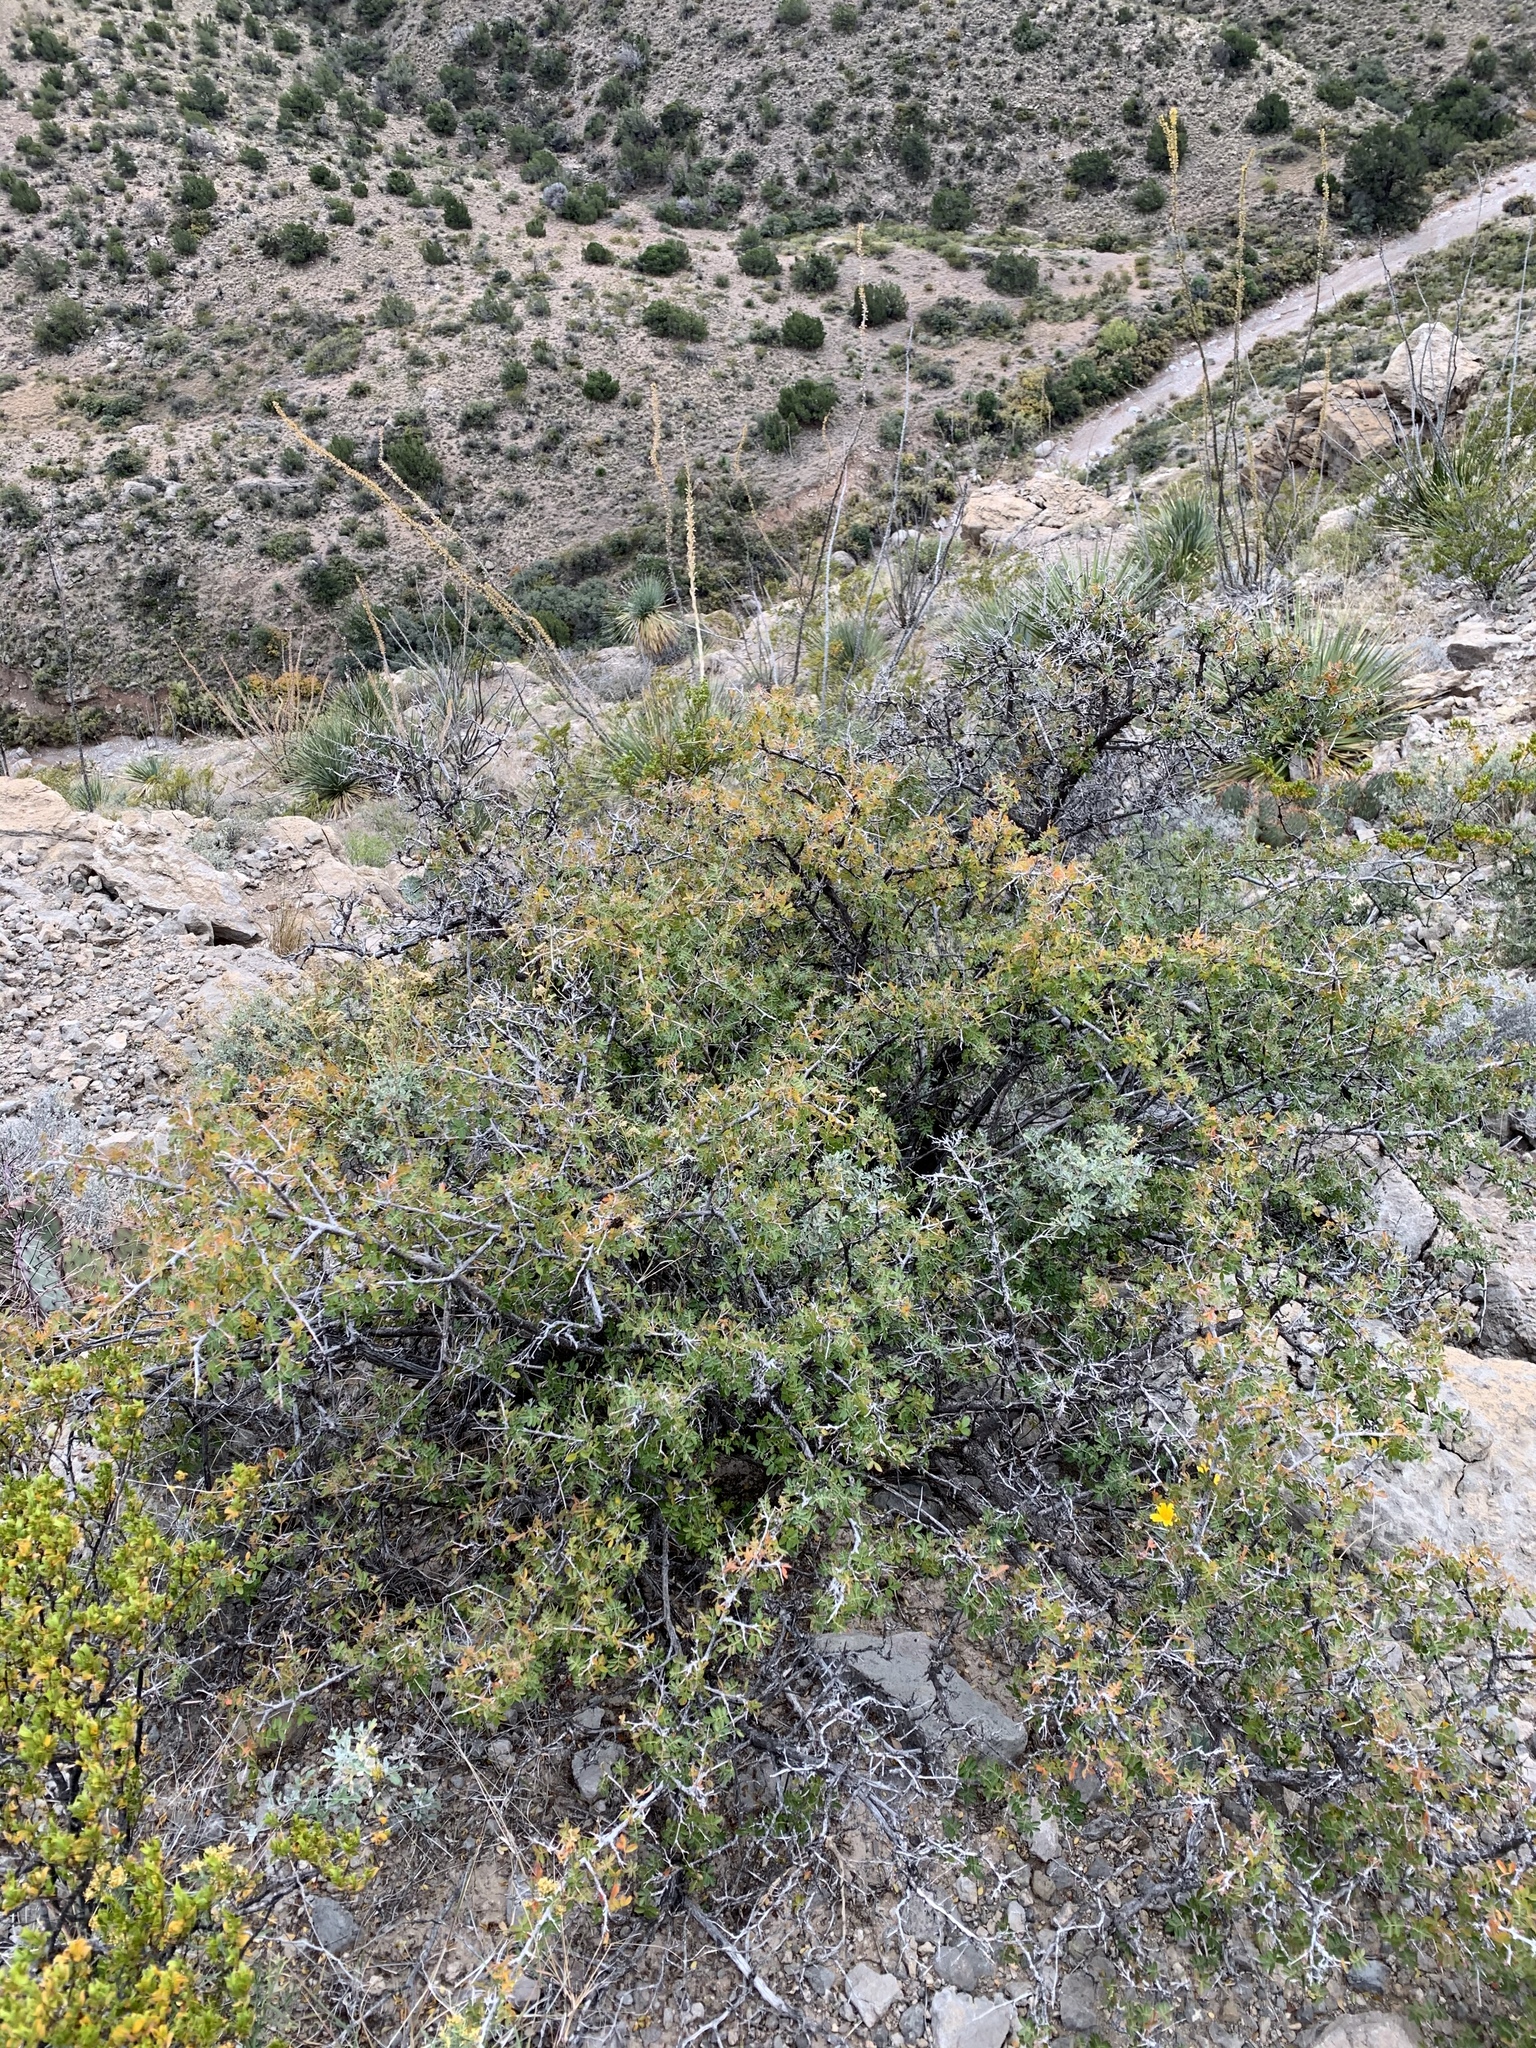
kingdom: Plantae
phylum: Tracheophyta
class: Magnoliopsida
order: Sapindales
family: Anacardiaceae
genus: Rhus
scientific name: Rhus microphylla
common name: Desert sumac
